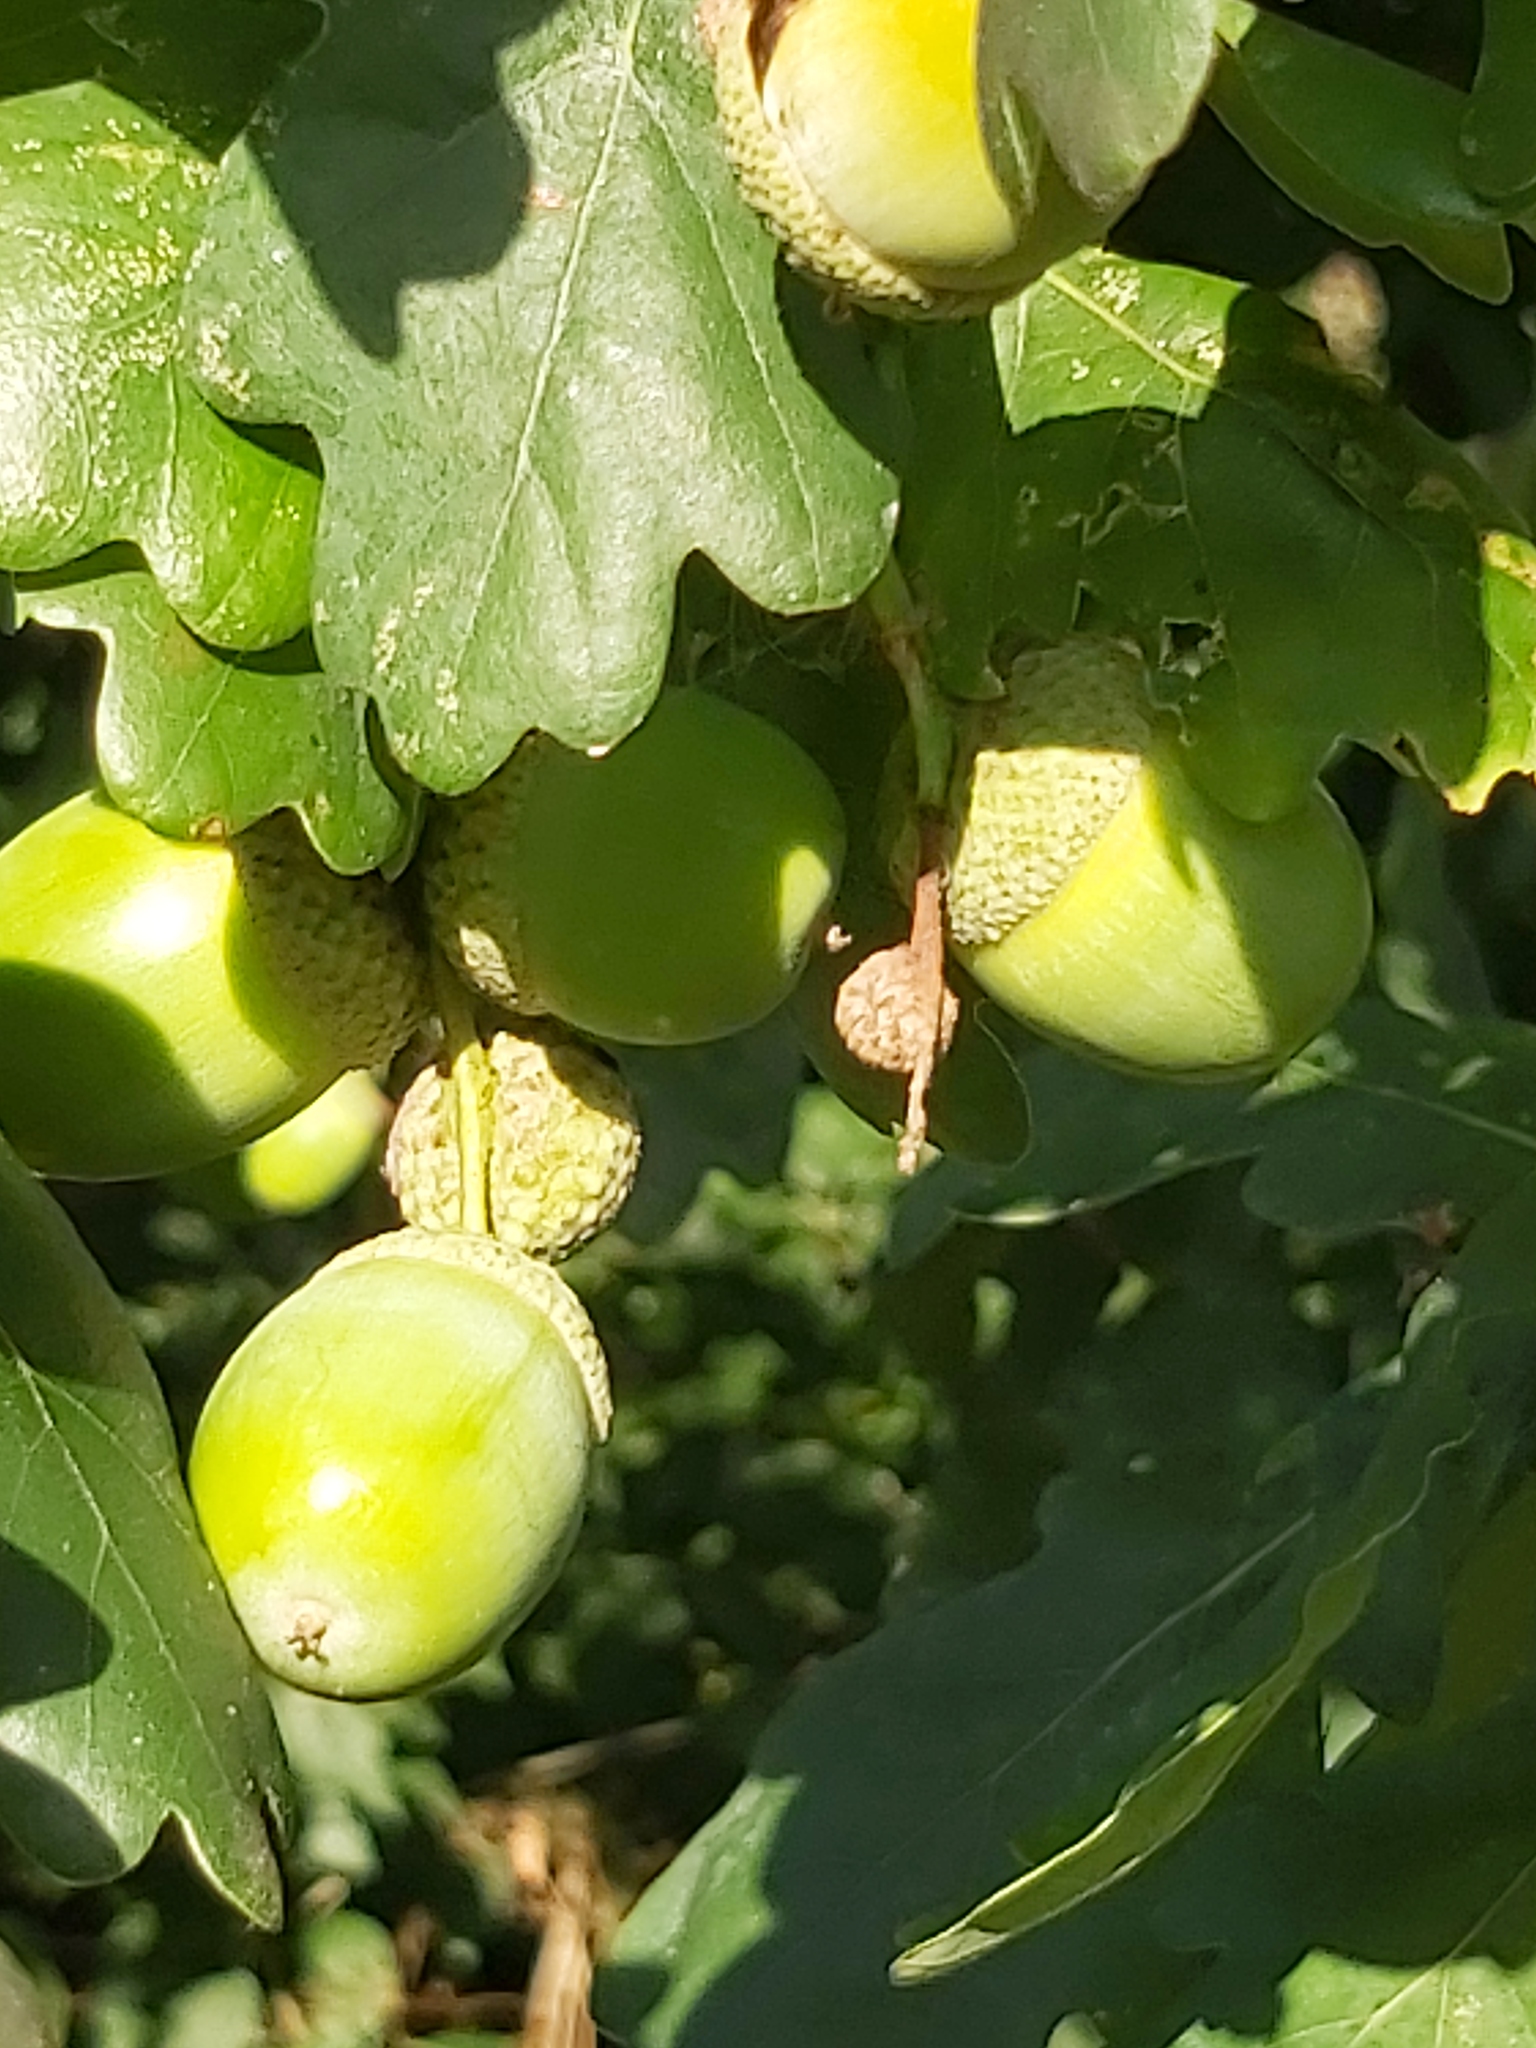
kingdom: Plantae
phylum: Tracheophyta
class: Magnoliopsida
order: Fagales
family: Fagaceae
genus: Quercus
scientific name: Quercus robur
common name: Pedunculate oak
